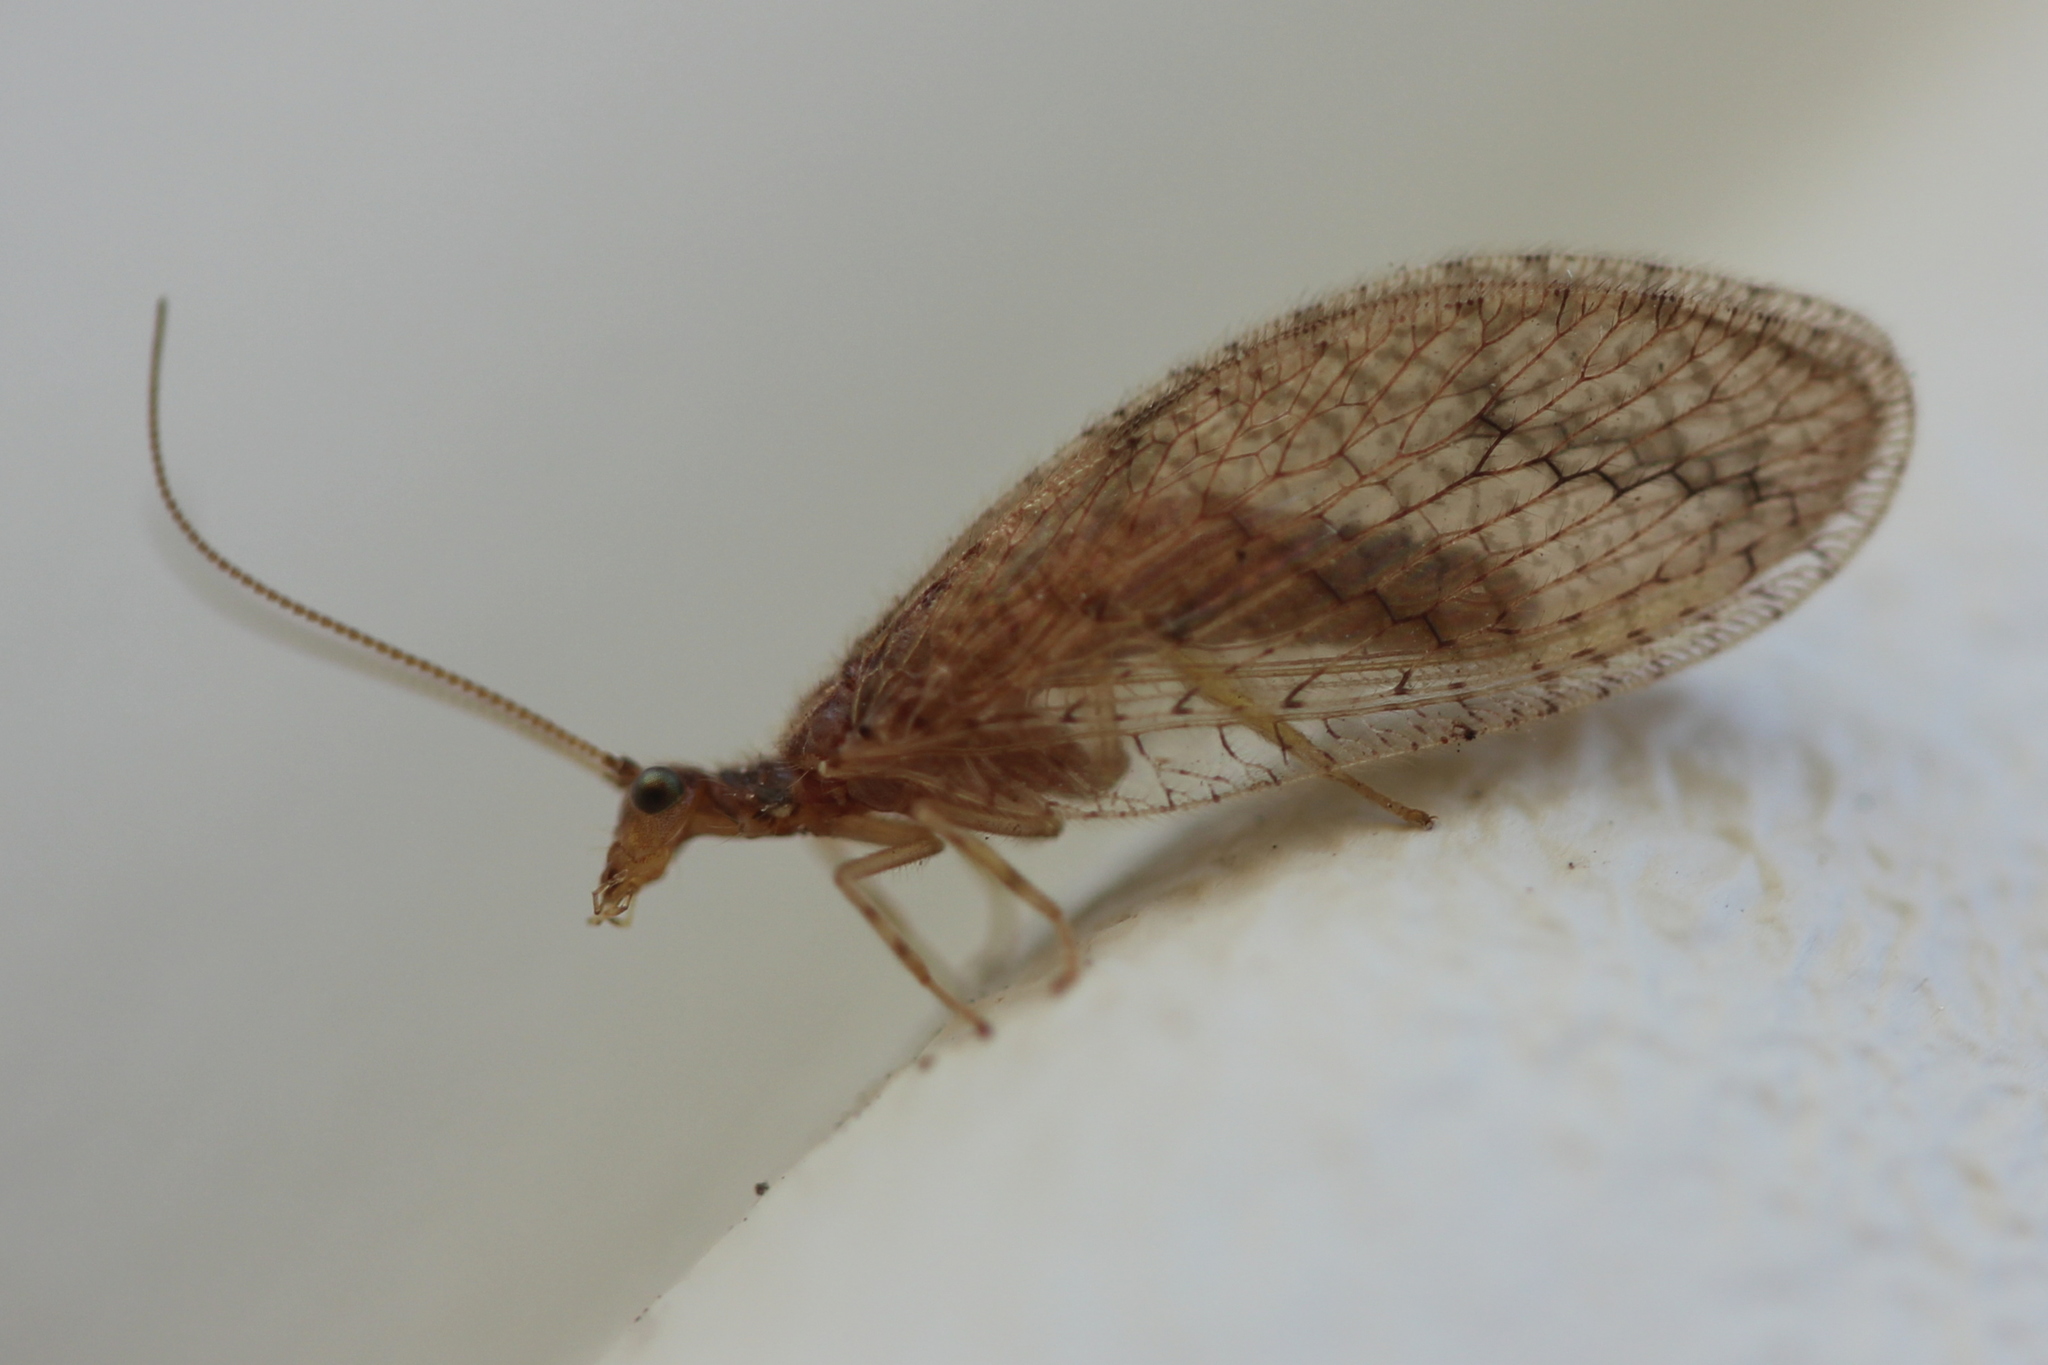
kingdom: Animalia
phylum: Arthropoda
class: Insecta
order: Neuroptera
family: Hemerobiidae
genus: Micromus
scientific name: Micromus posticus
